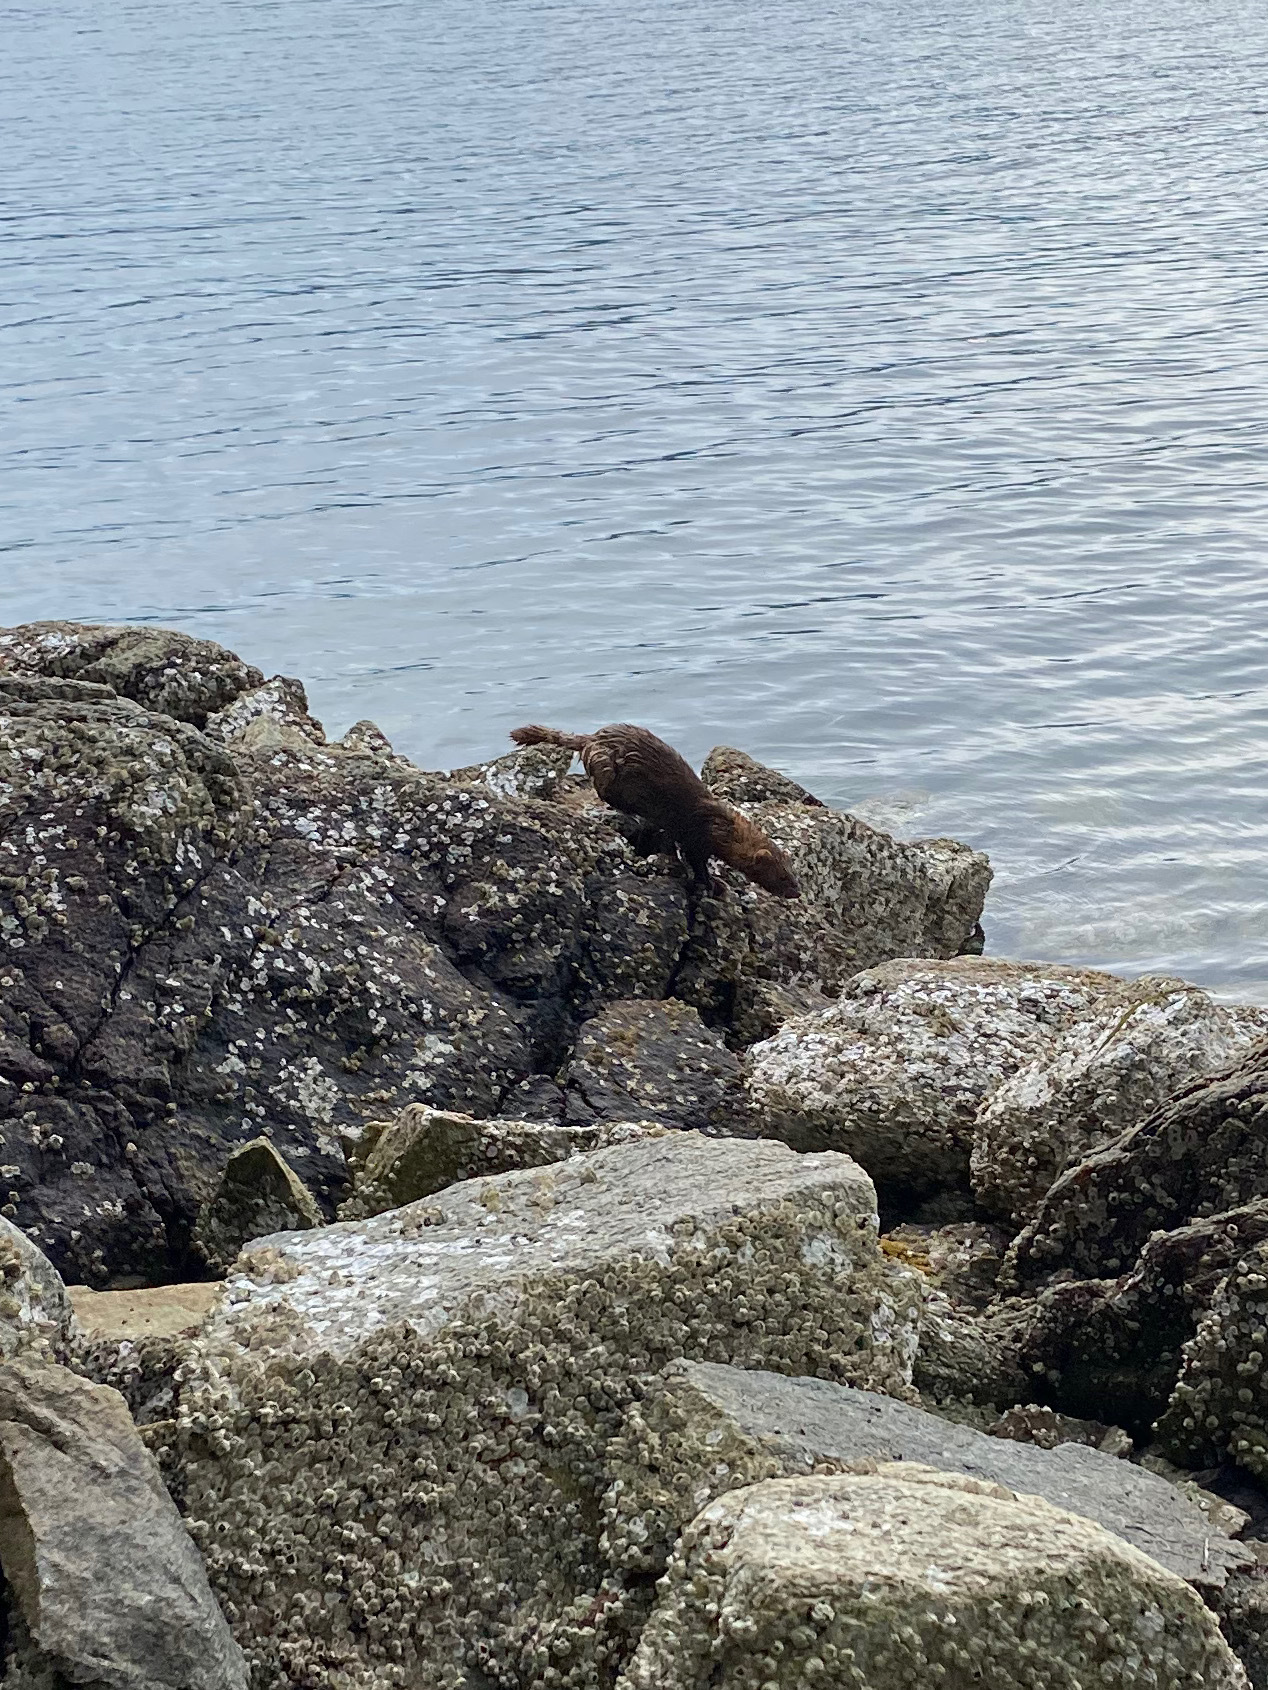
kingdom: Animalia
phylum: Chordata
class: Mammalia
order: Carnivora
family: Mustelidae
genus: Mustela
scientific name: Mustela
